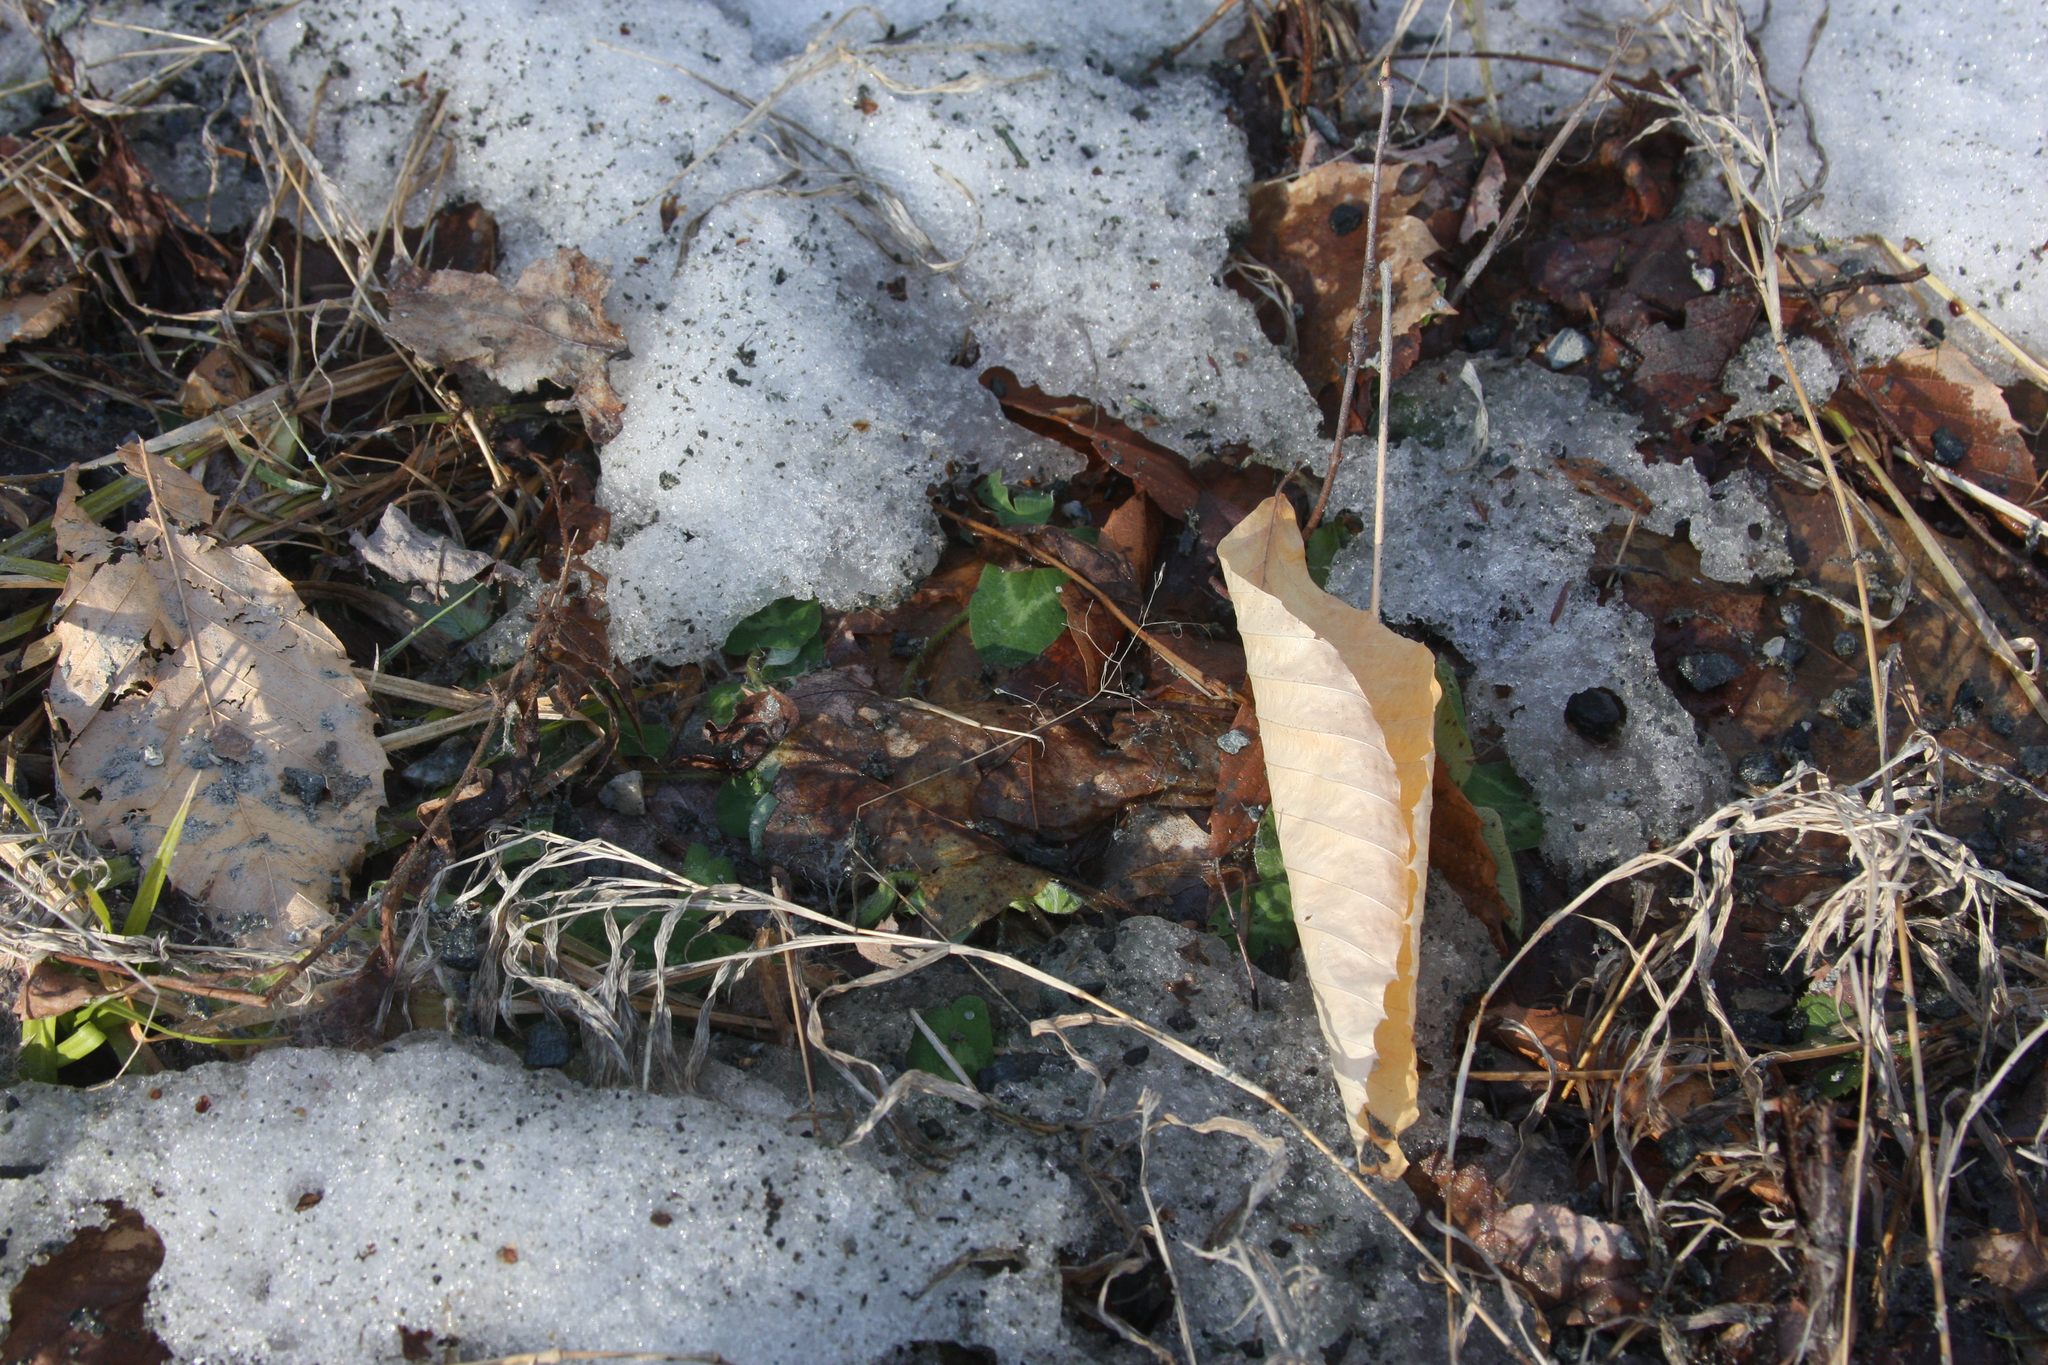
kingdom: Plantae
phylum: Tracheophyta
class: Magnoliopsida
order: Fagales
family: Fagaceae
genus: Fagus
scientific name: Fagus grandifolia
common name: American beech
